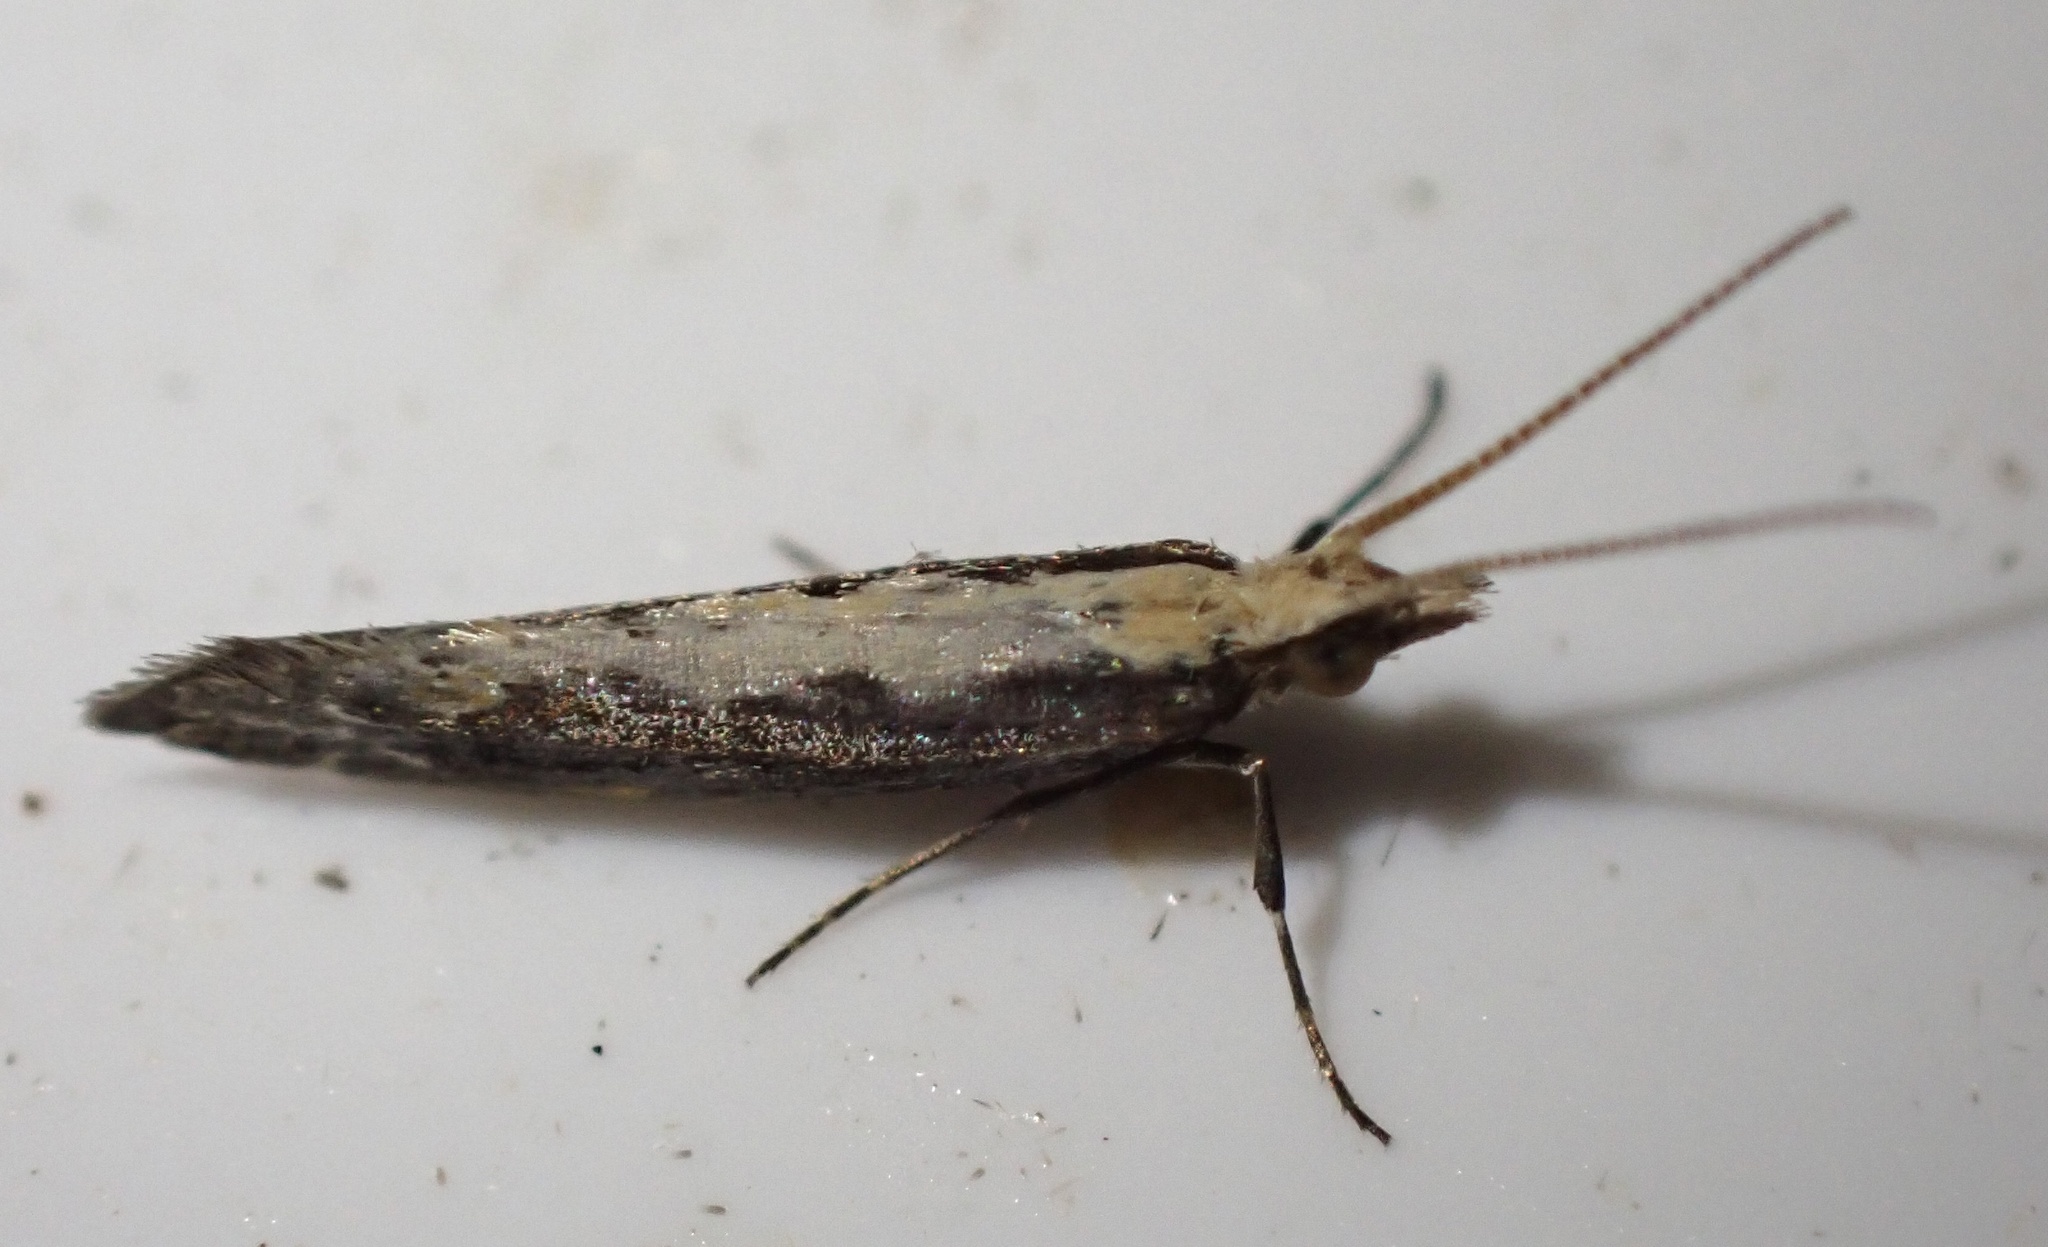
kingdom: Animalia
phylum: Arthropoda
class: Insecta
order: Lepidoptera
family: Plutellidae
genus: Plutella
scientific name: Plutella xylostella
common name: Diamond-back moth
